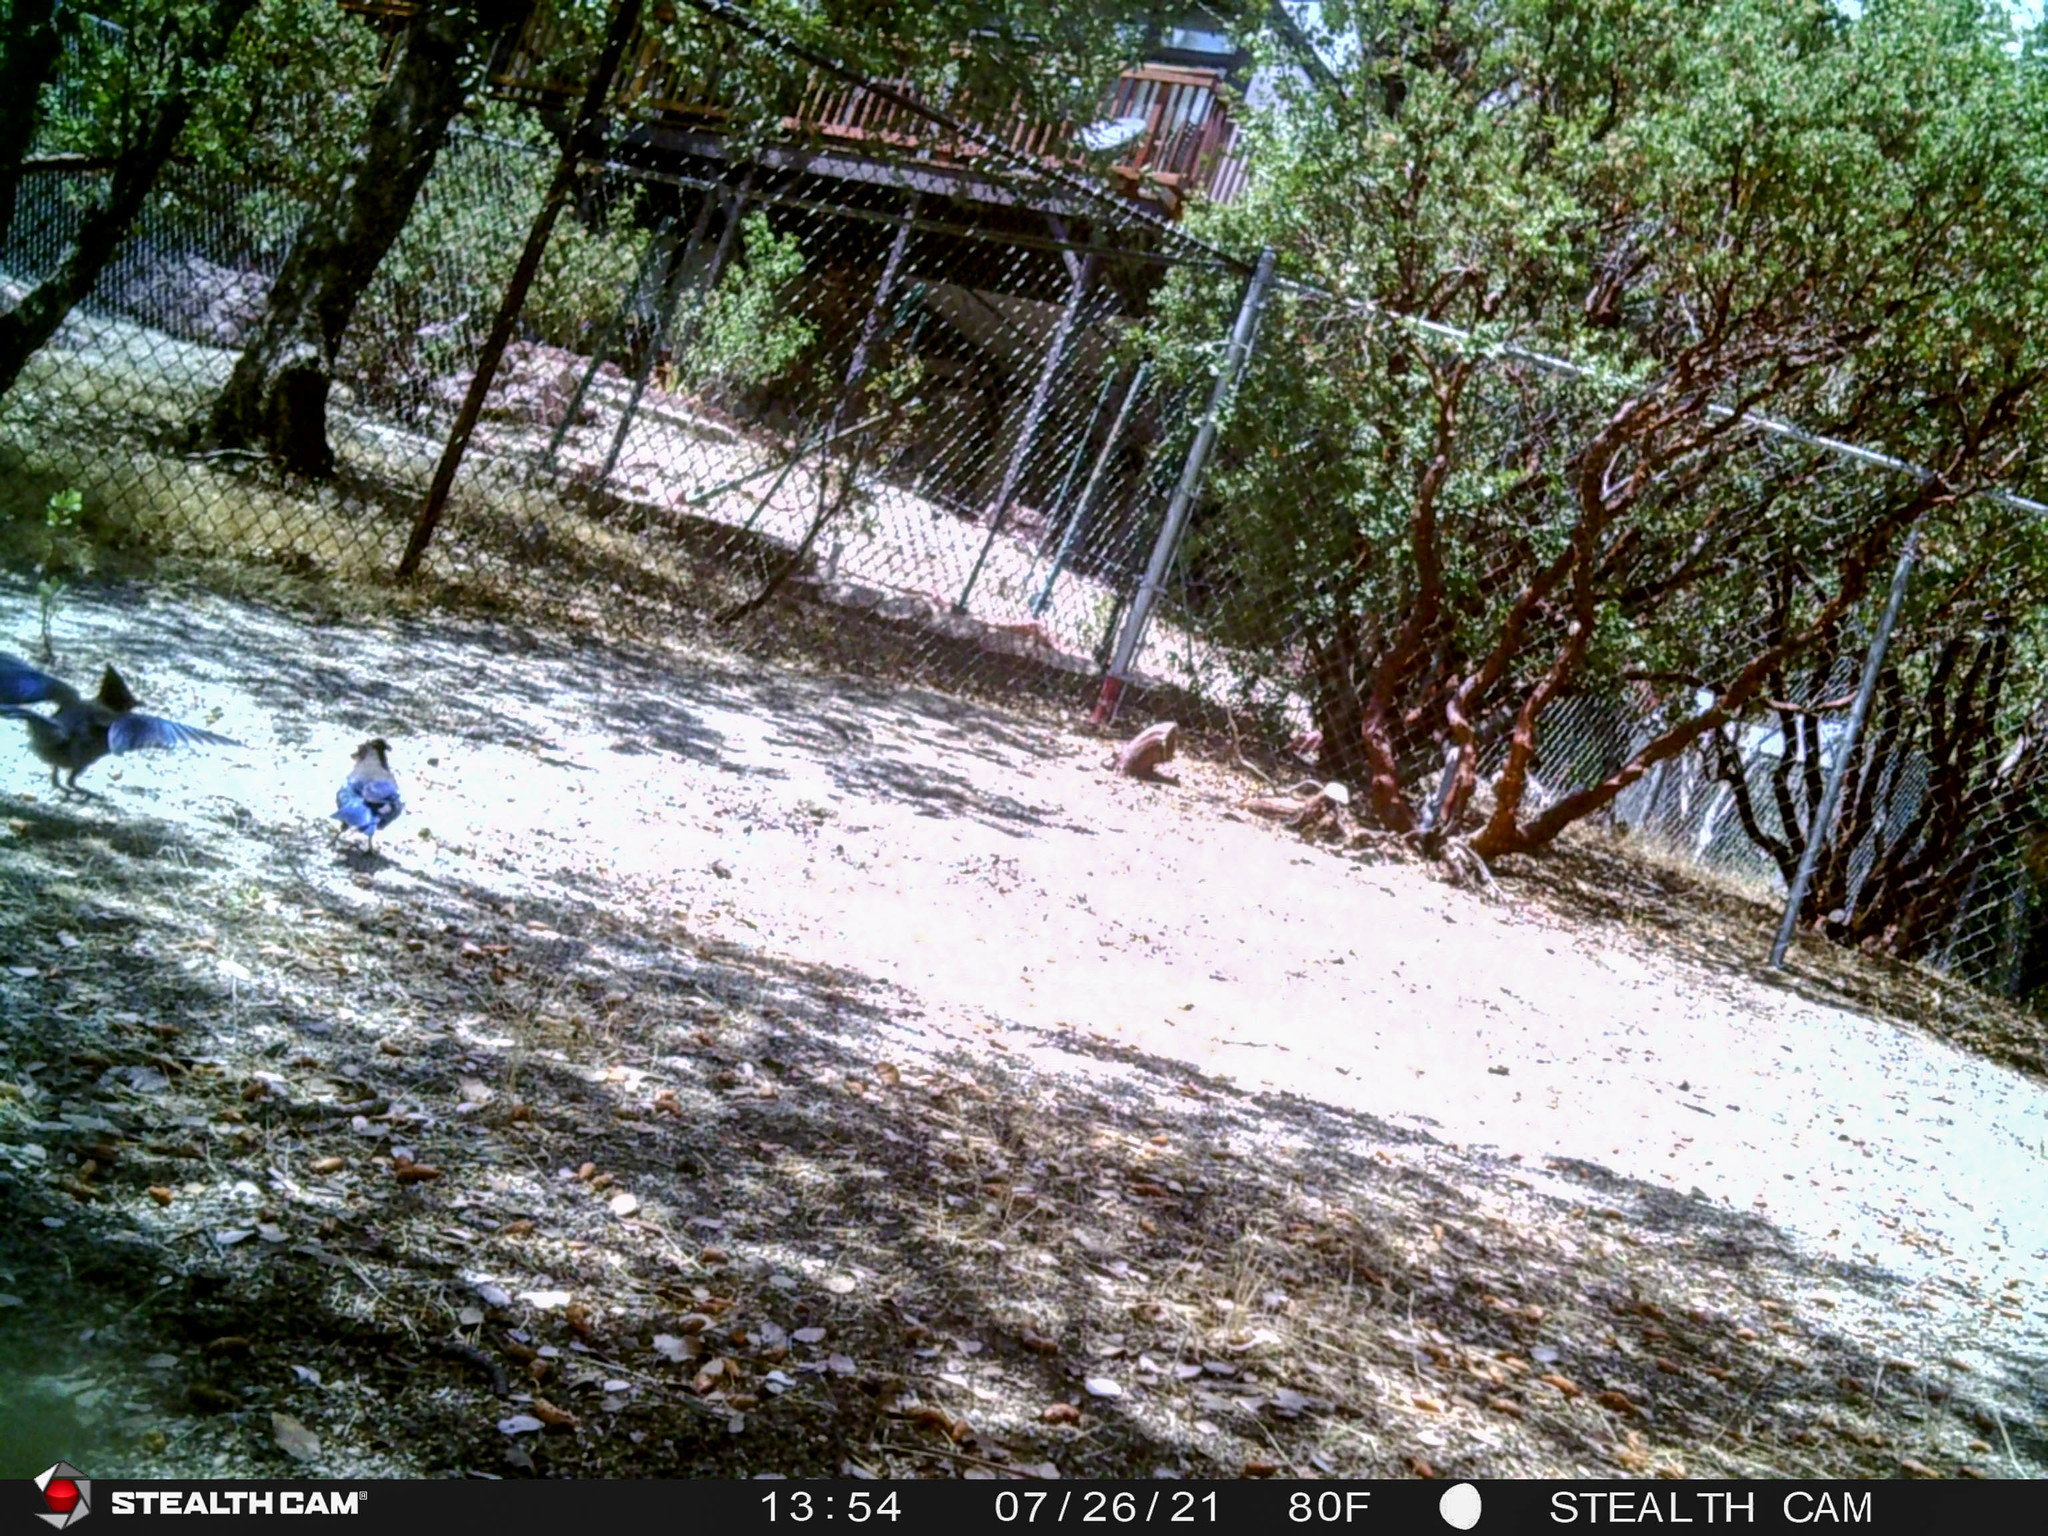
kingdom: Animalia
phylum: Chordata
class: Aves
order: Passeriformes
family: Corvidae
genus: Cyanocitta
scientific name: Cyanocitta stelleri
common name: Steller's jay
